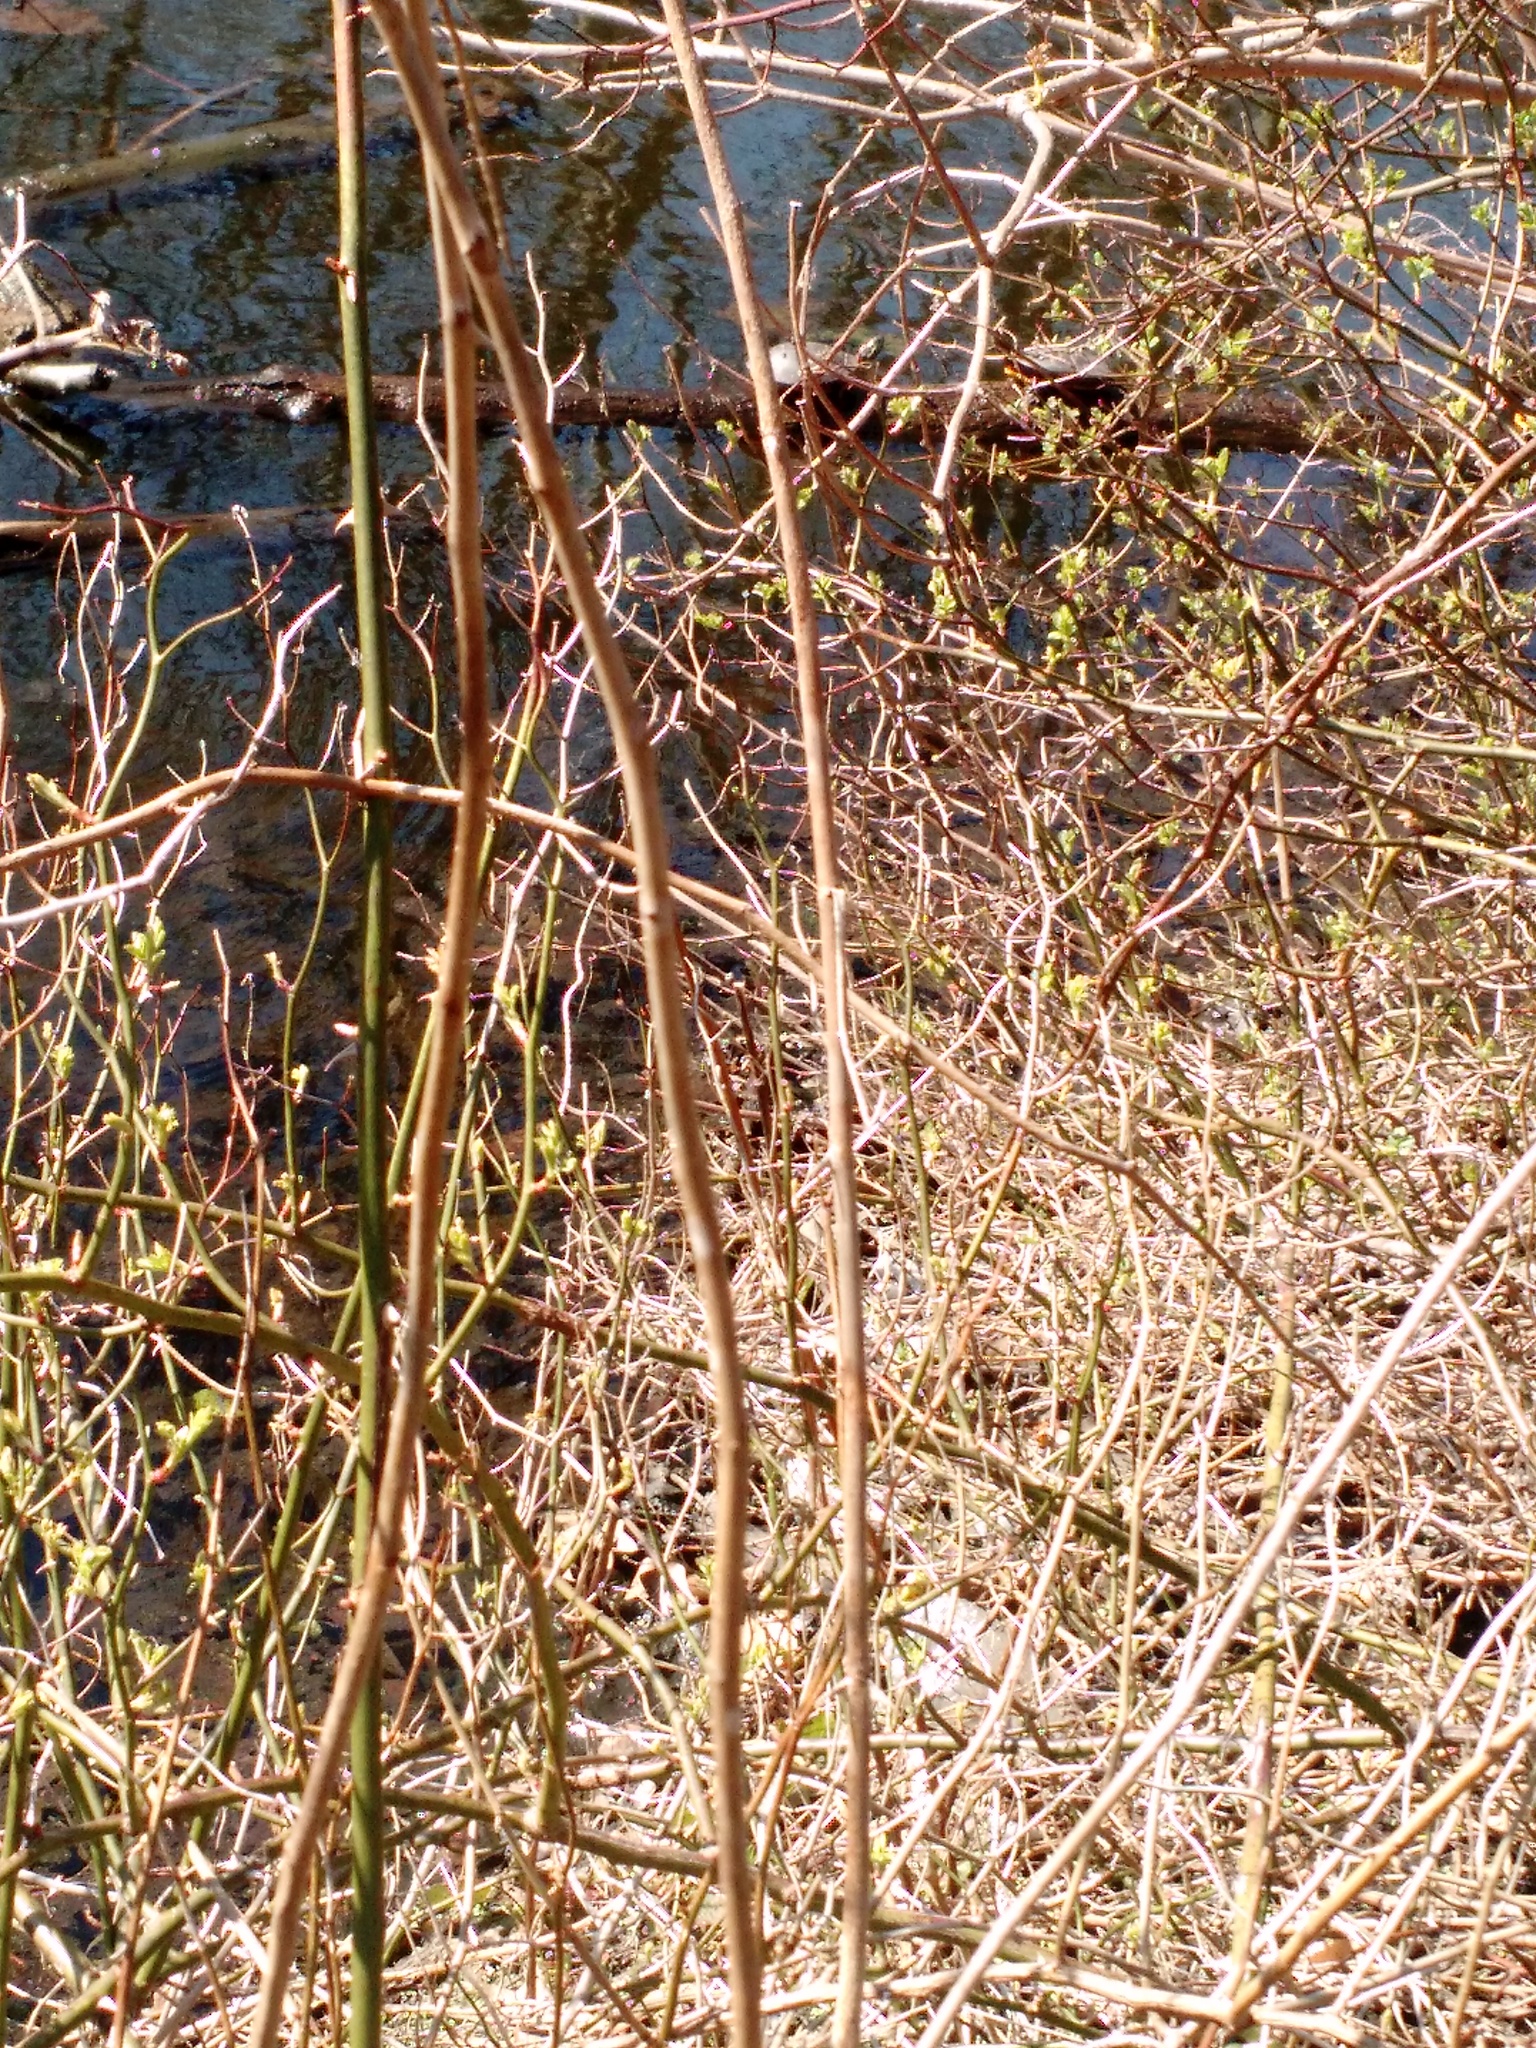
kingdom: Animalia
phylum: Chordata
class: Testudines
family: Emydidae
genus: Chrysemys
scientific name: Chrysemys picta
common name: Painted turtle
